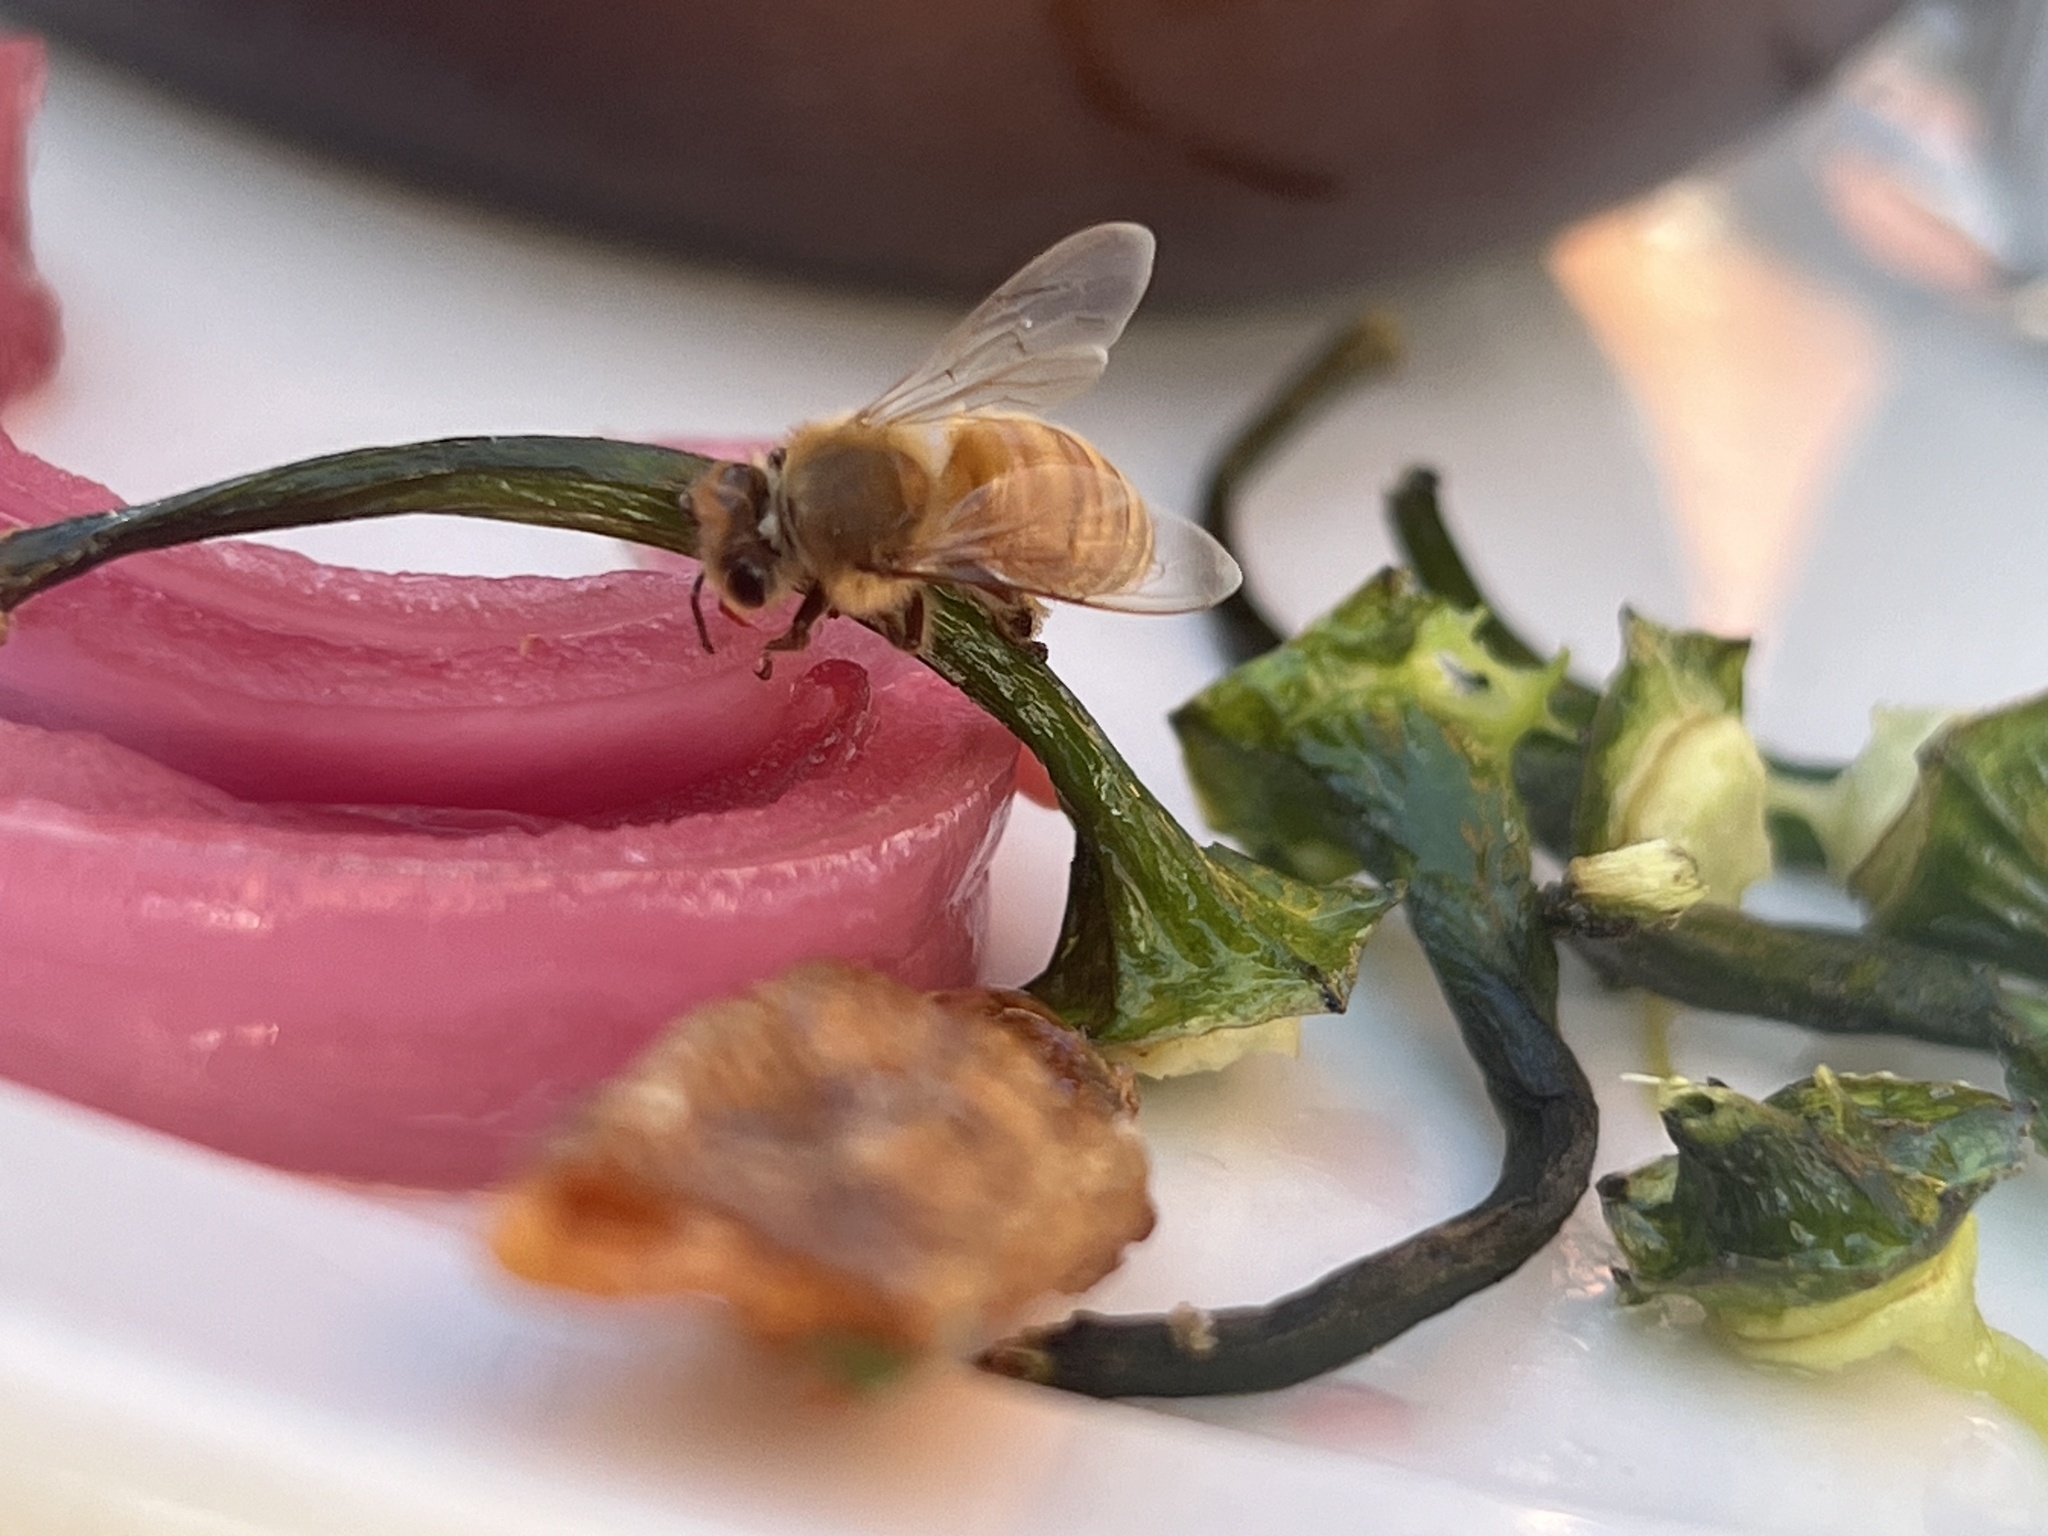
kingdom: Animalia
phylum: Arthropoda
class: Insecta
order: Hymenoptera
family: Apidae
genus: Apis
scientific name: Apis mellifera
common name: Honey bee
